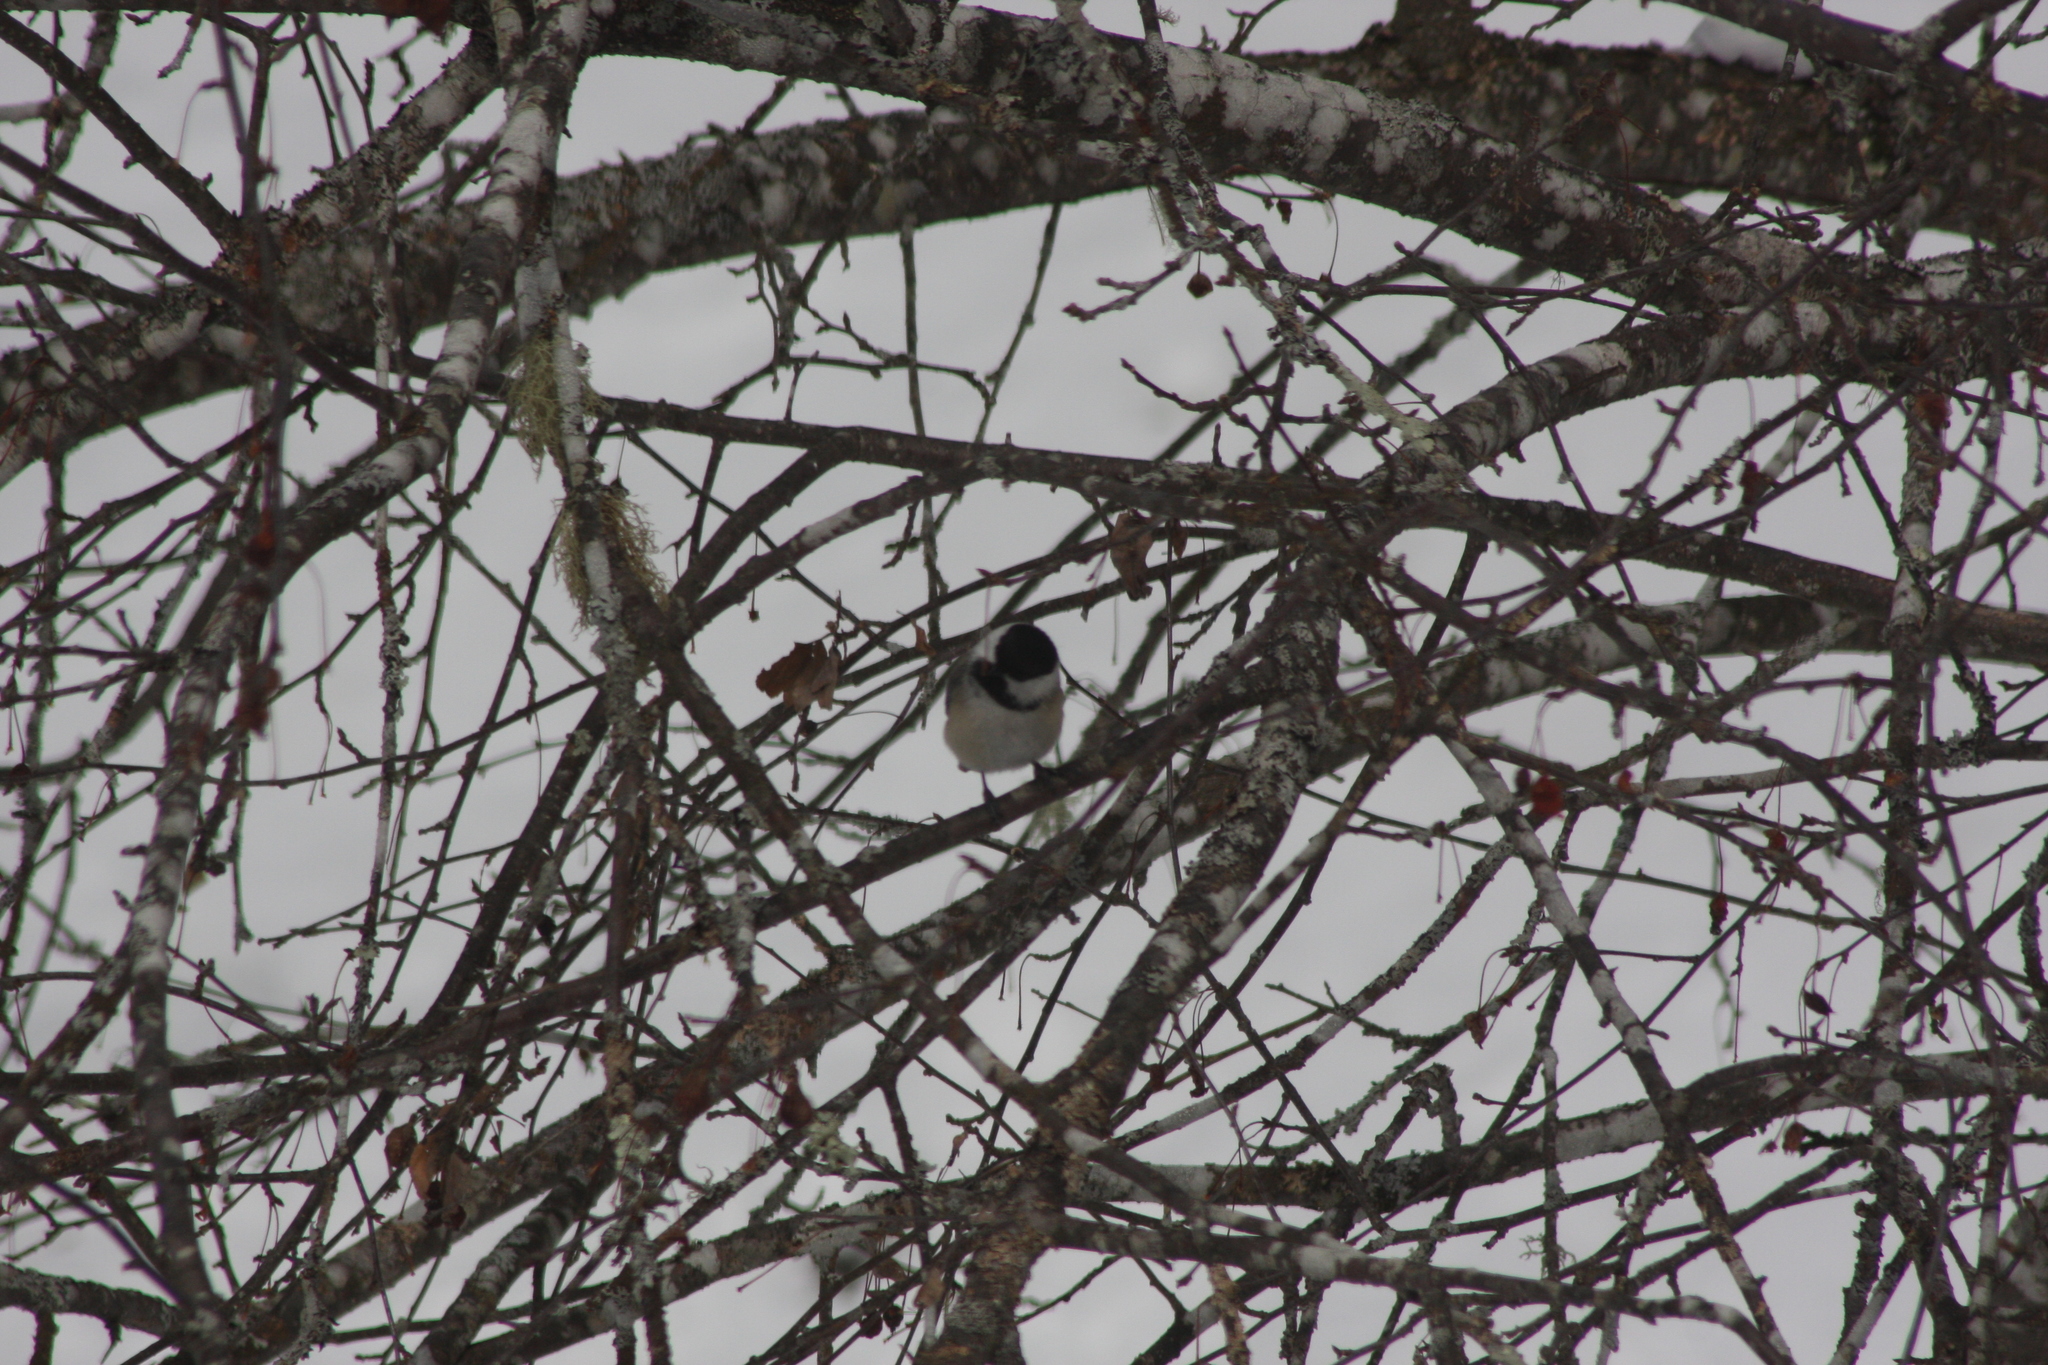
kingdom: Animalia
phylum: Chordata
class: Aves
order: Passeriformes
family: Paridae
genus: Poecile
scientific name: Poecile atricapillus
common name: Black-capped chickadee
